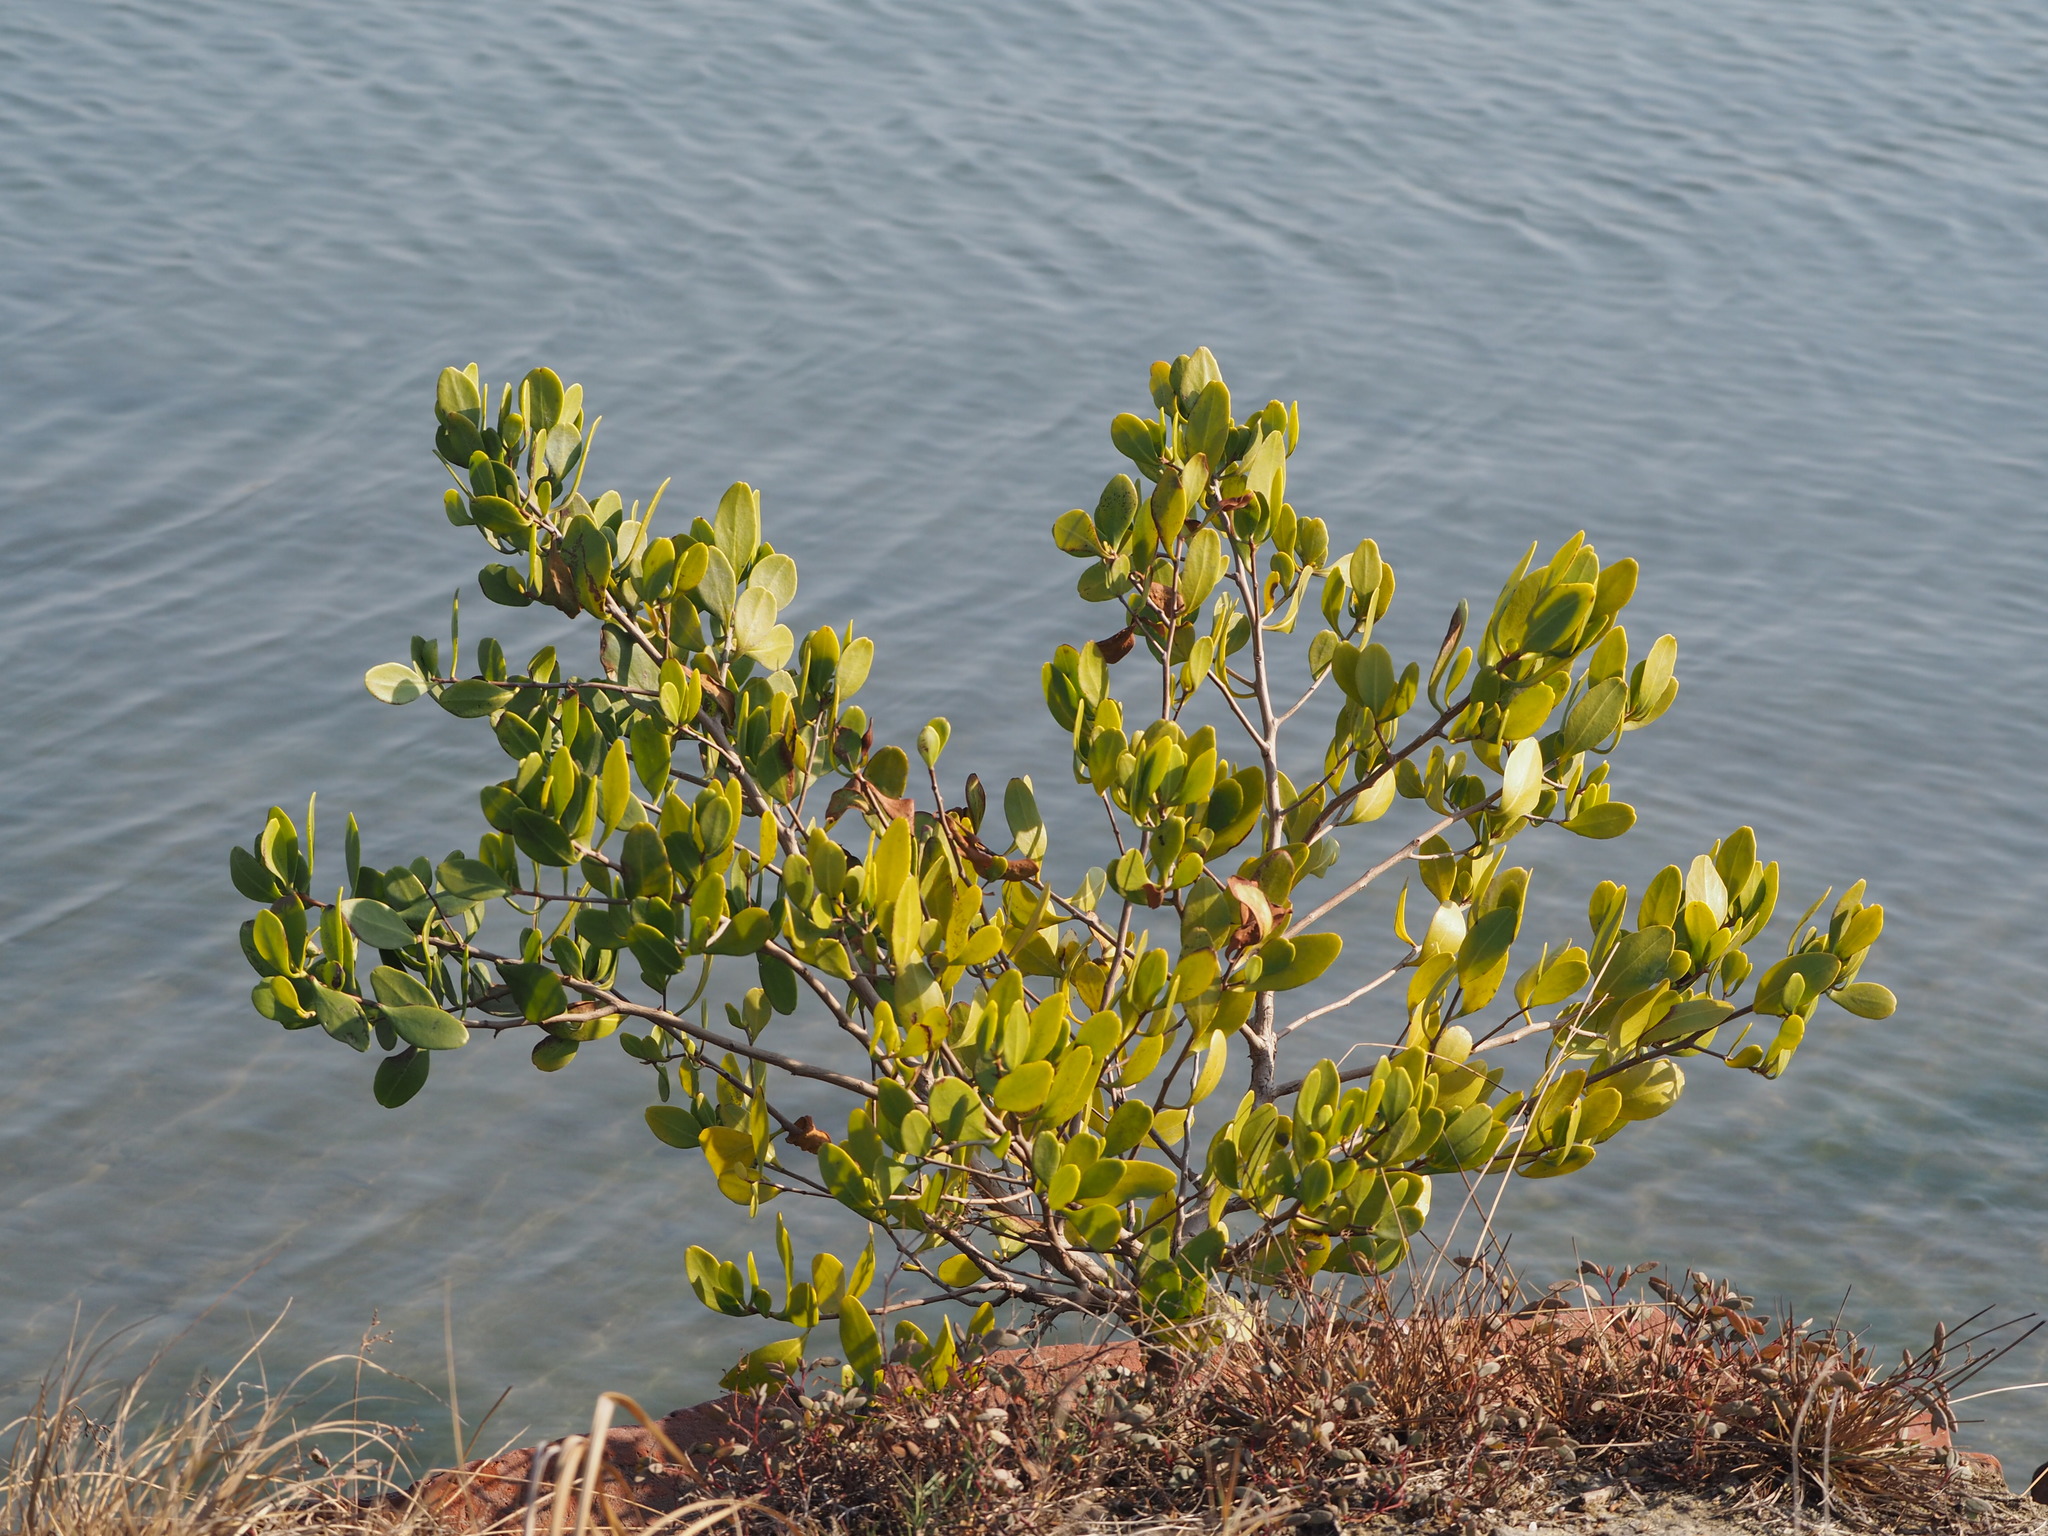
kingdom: Plantae
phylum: Tracheophyta
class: Magnoliopsida
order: Myrtales
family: Combretaceae
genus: Lumnitzera
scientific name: Lumnitzera racemosa
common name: White-flowered black mangrove
